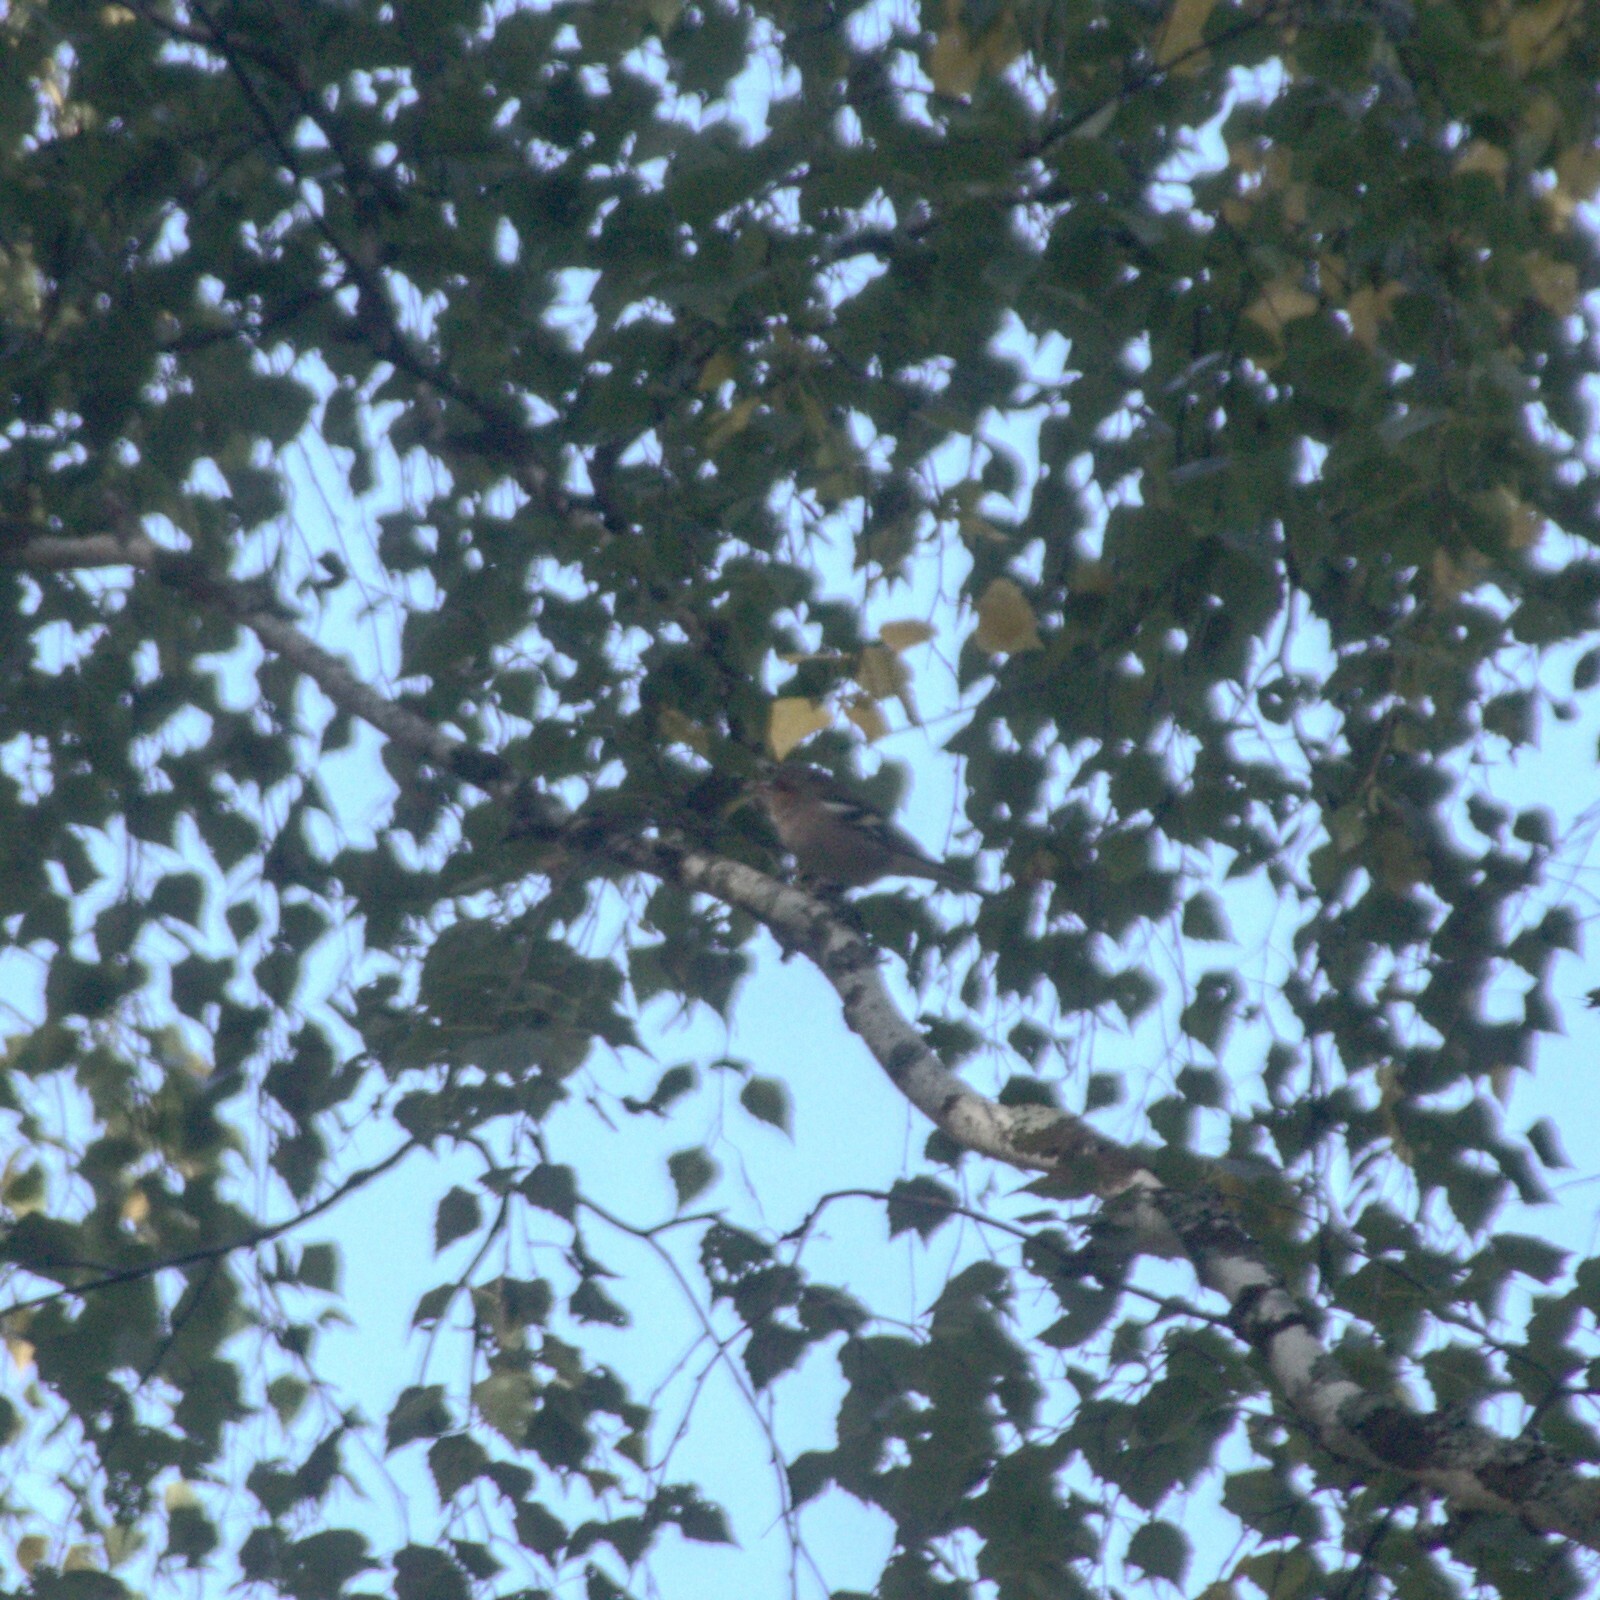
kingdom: Animalia
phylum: Chordata
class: Aves
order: Passeriformes
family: Fringillidae
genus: Fringilla
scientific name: Fringilla coelebs
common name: Common chaffinch
